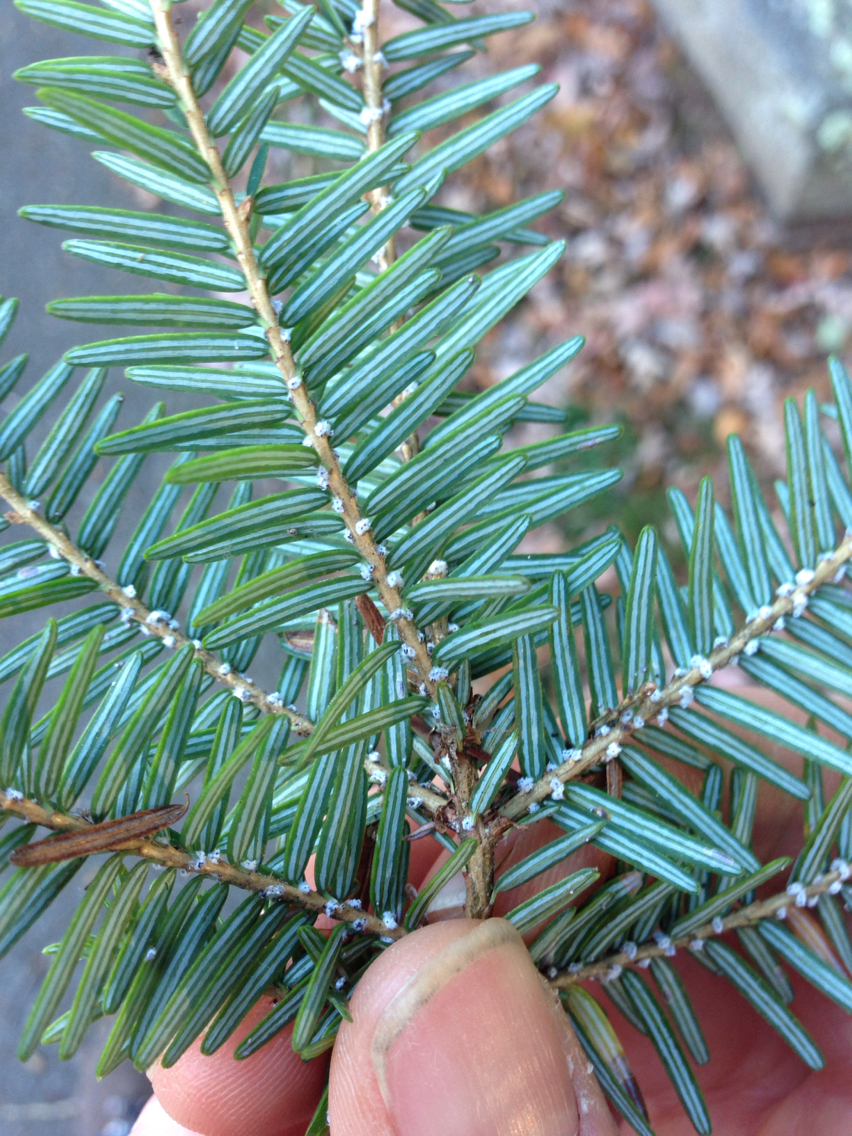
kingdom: Animalia
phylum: Arthropoda
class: Insecta
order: Hemiptera
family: Adelgidae
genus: Adelges
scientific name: Adelges tsugae
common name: Hemlock woolly adelgid
